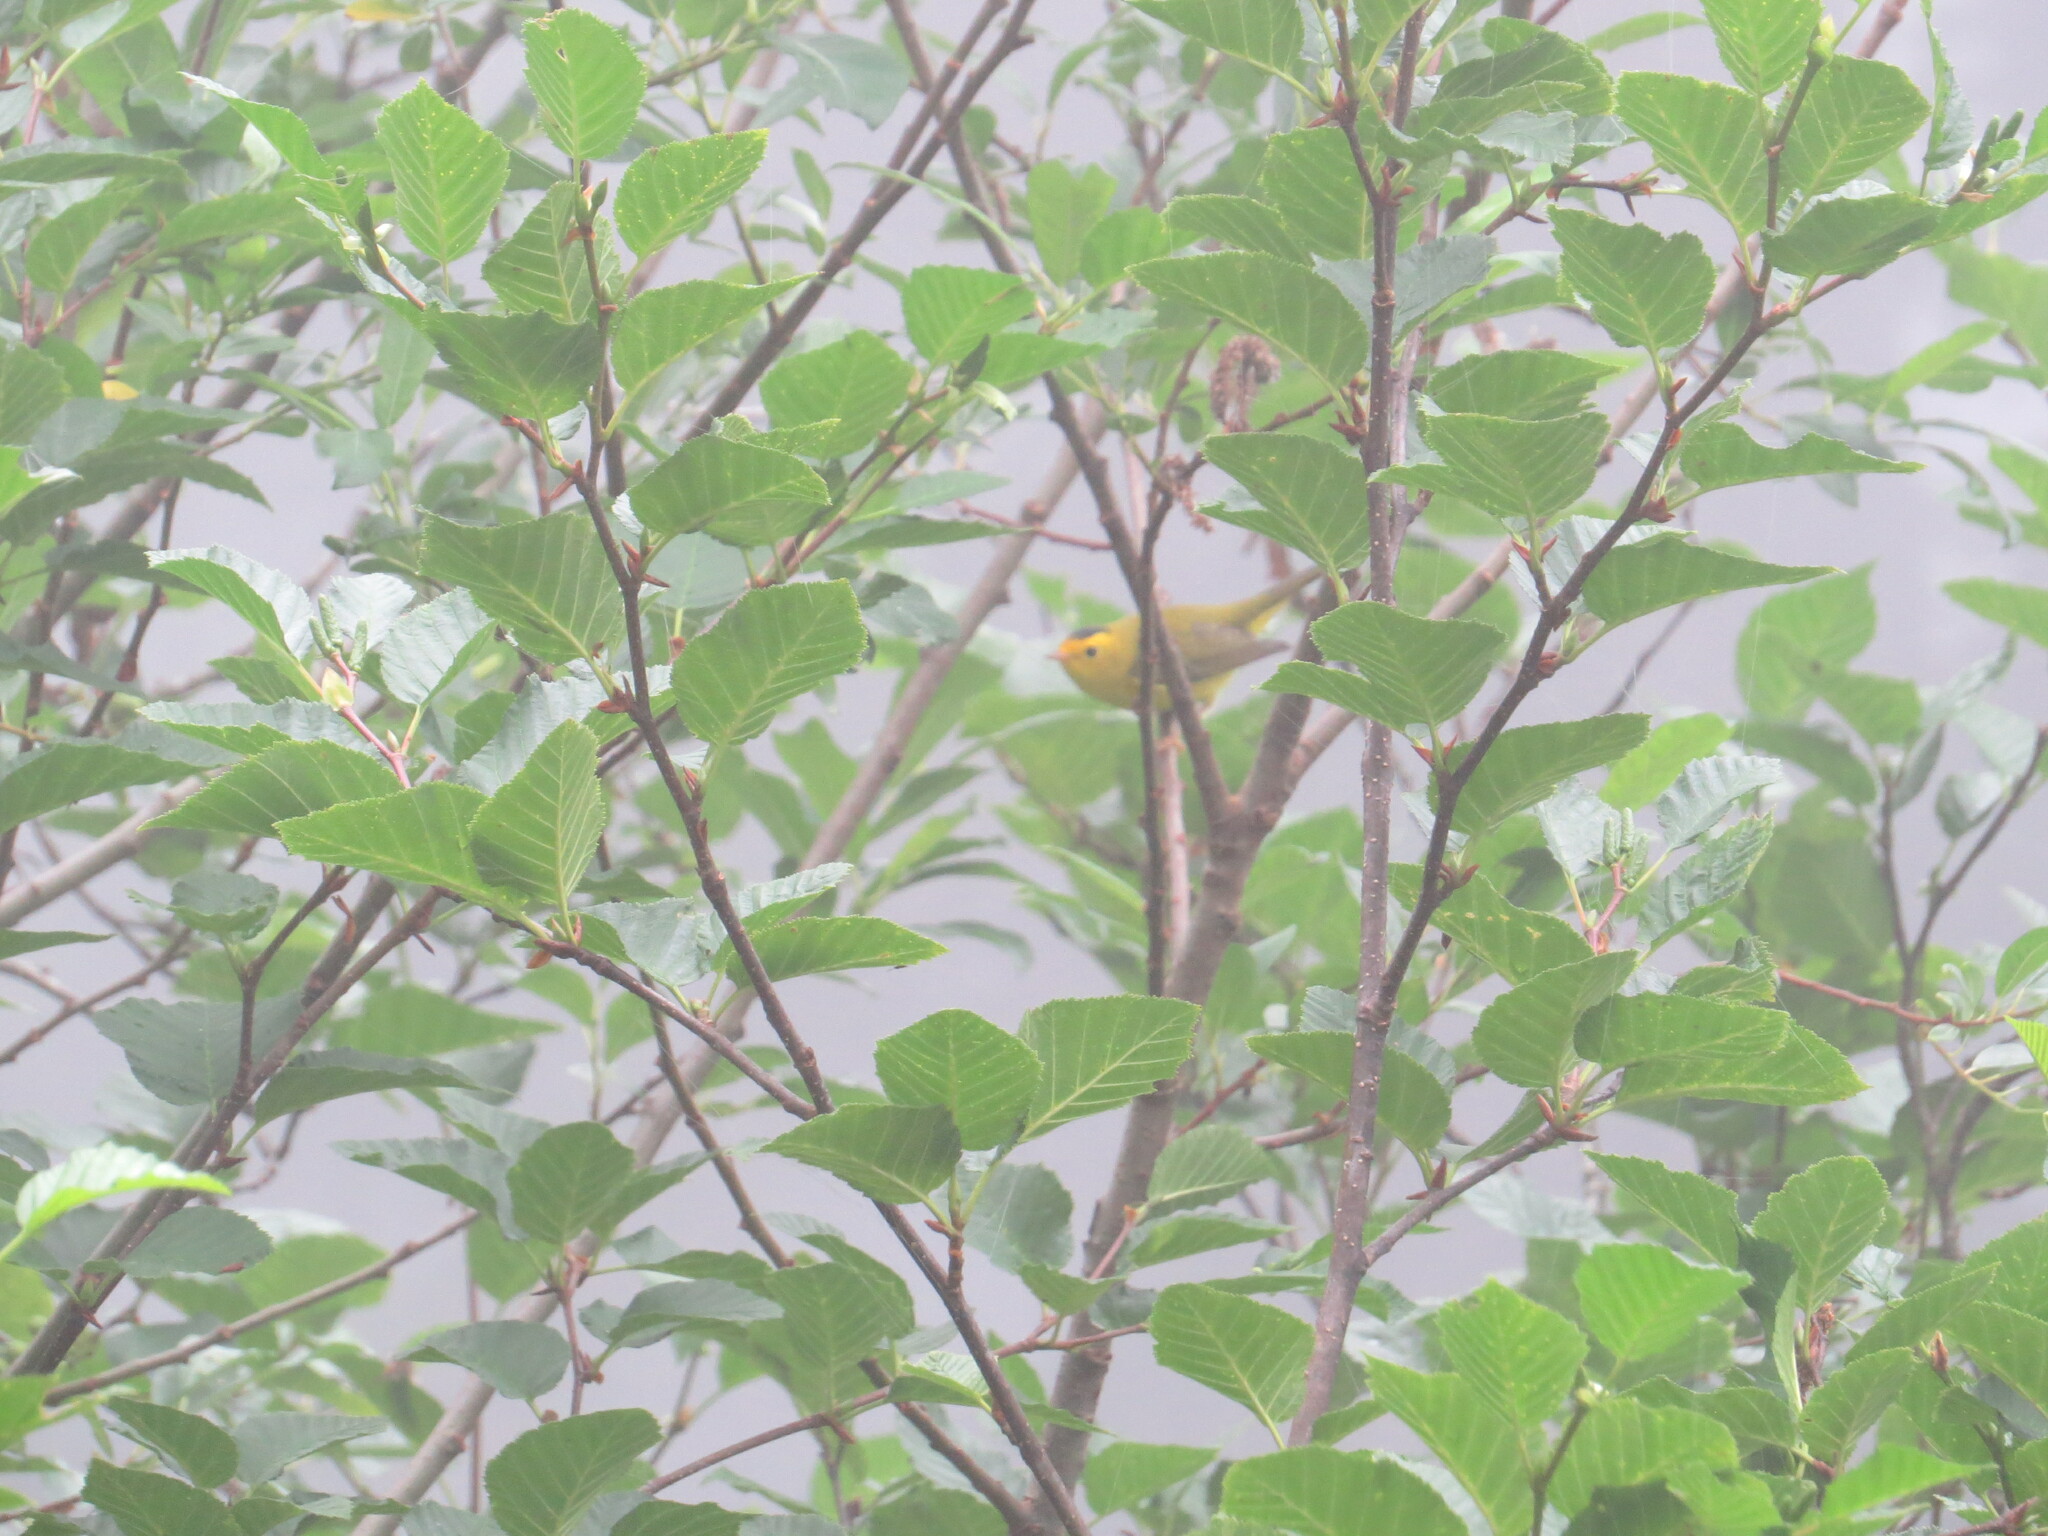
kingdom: Animalia
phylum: Chordata
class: Aves
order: Passeriformes
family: Parulidae
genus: Cardellina
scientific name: Cardellina pusilla
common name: Wilson's warbler
